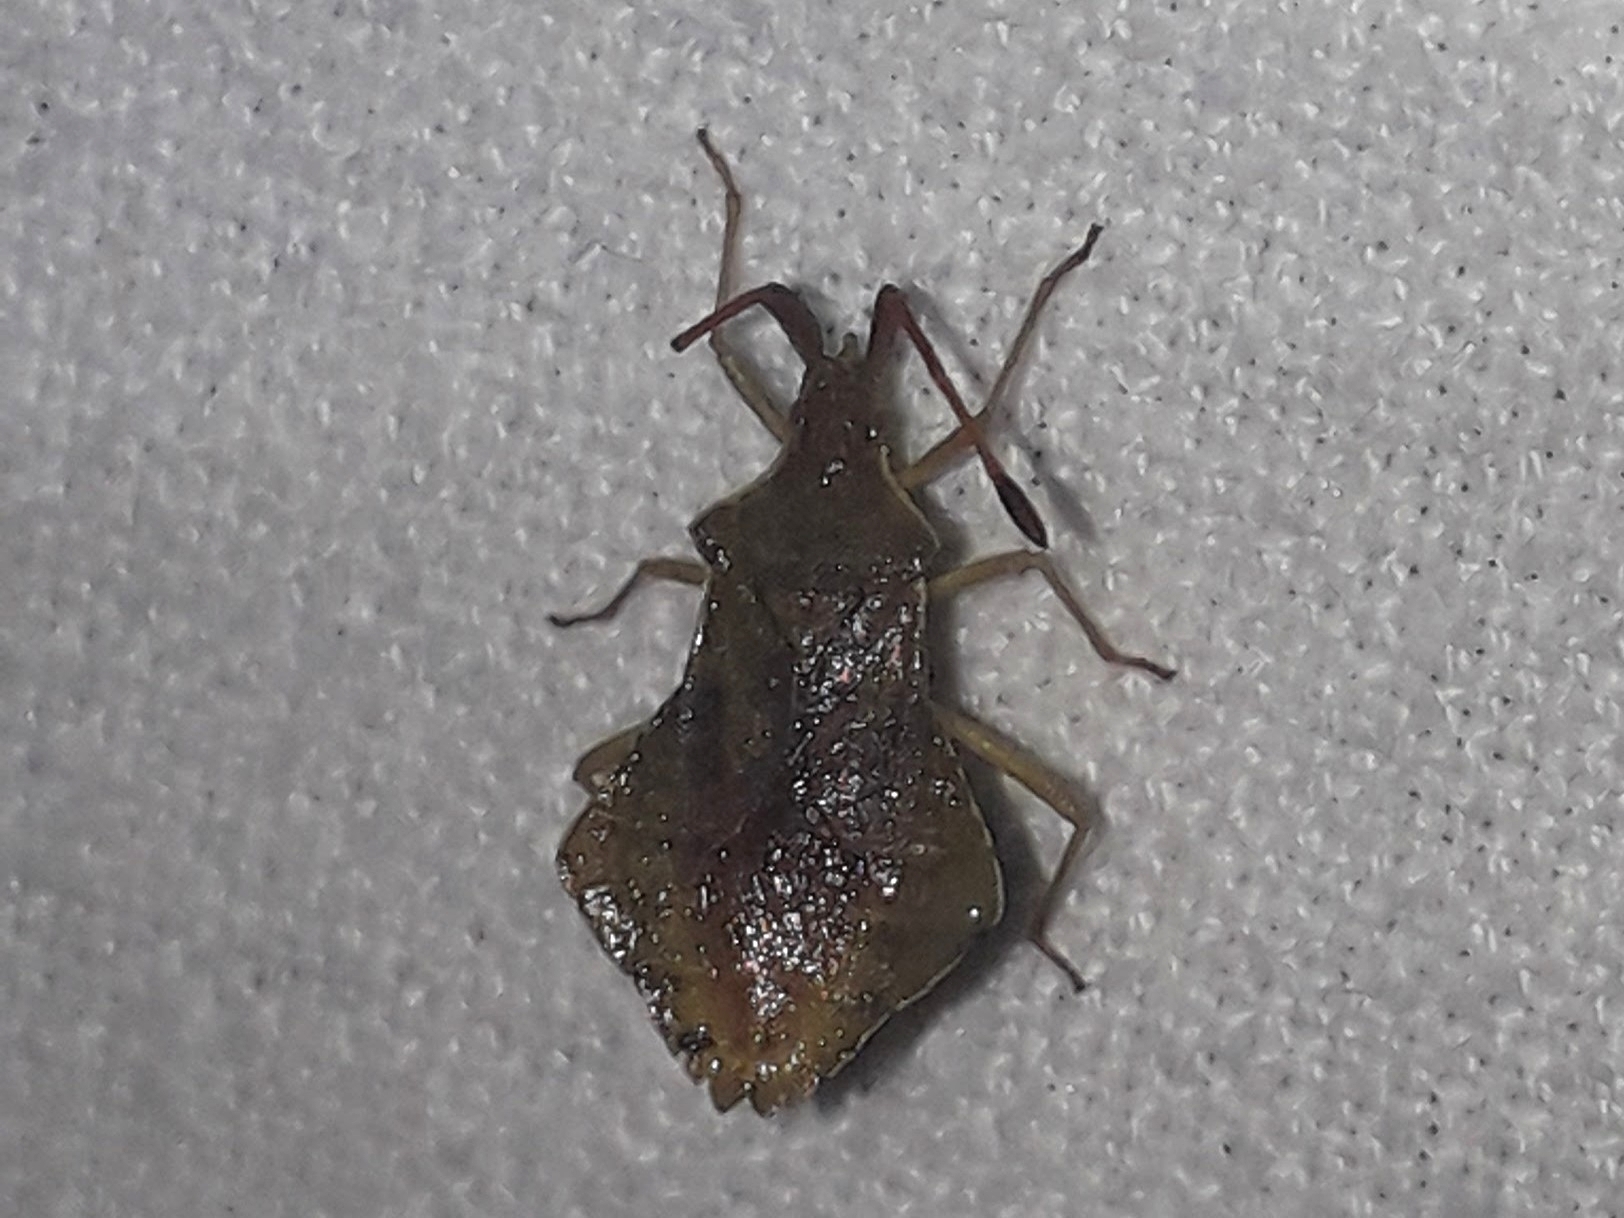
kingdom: Animalia
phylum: Arthropoda
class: Insecta
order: Hemiptera
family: Coreidae
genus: Syromastus
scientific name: Syromastus rhombeus
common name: Rhombic leatherbug
